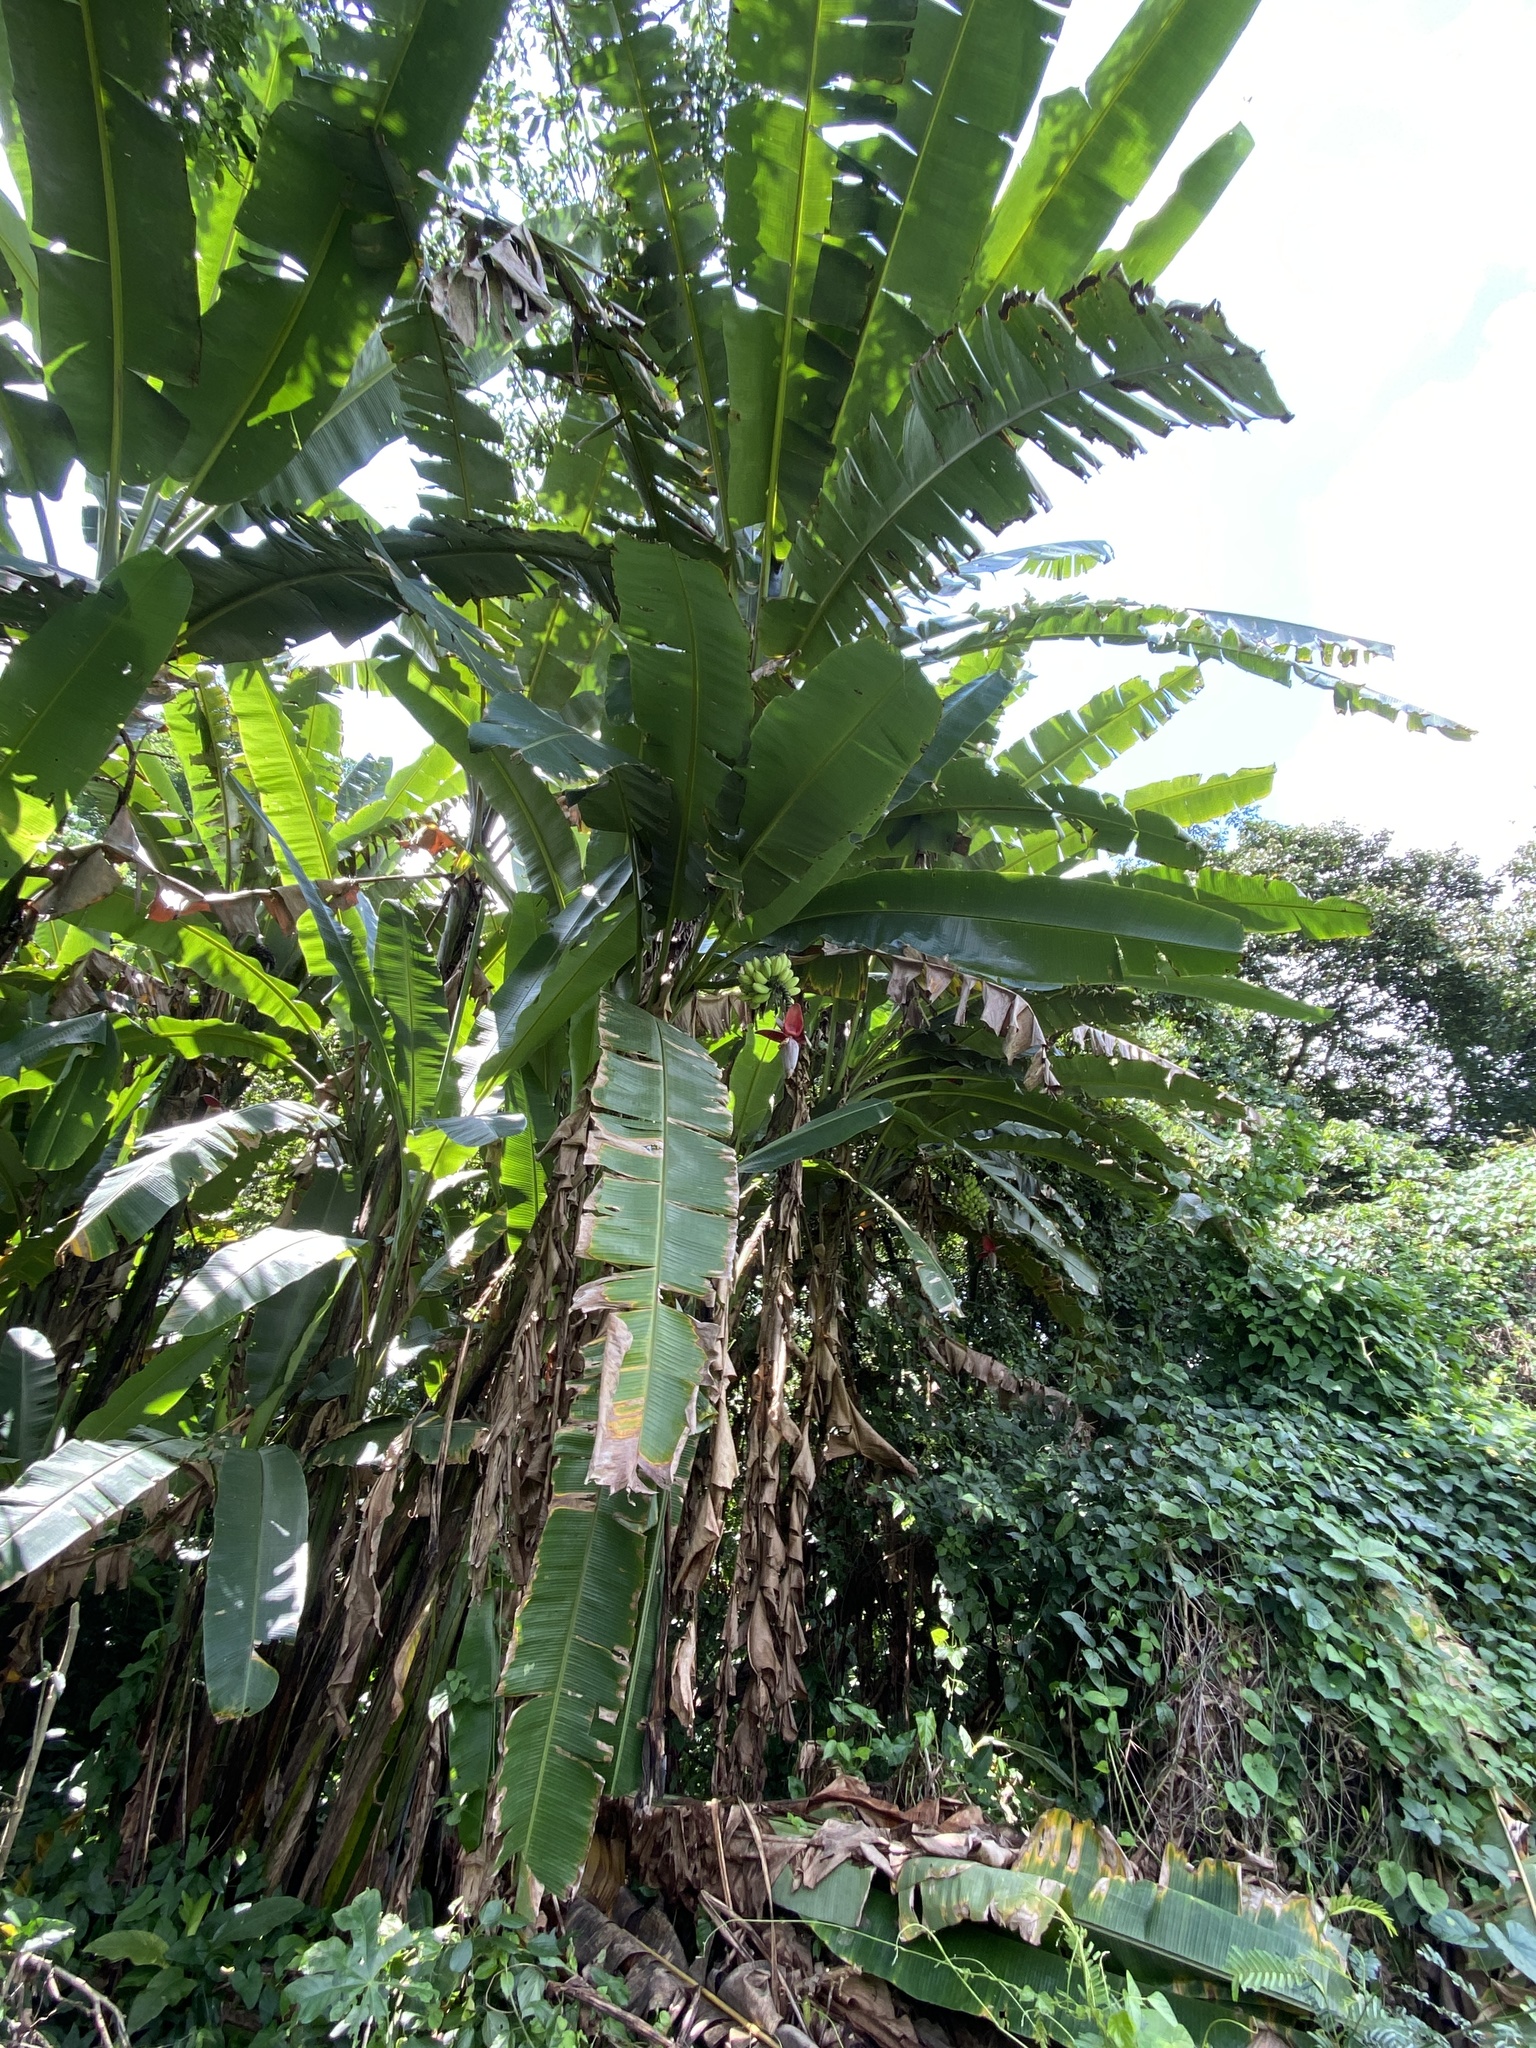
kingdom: Plantae
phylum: Tracheophyta
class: Liliopsida
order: Zingiberales
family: Musaceae
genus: Musa
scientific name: Musa balbisiana
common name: Plantain
